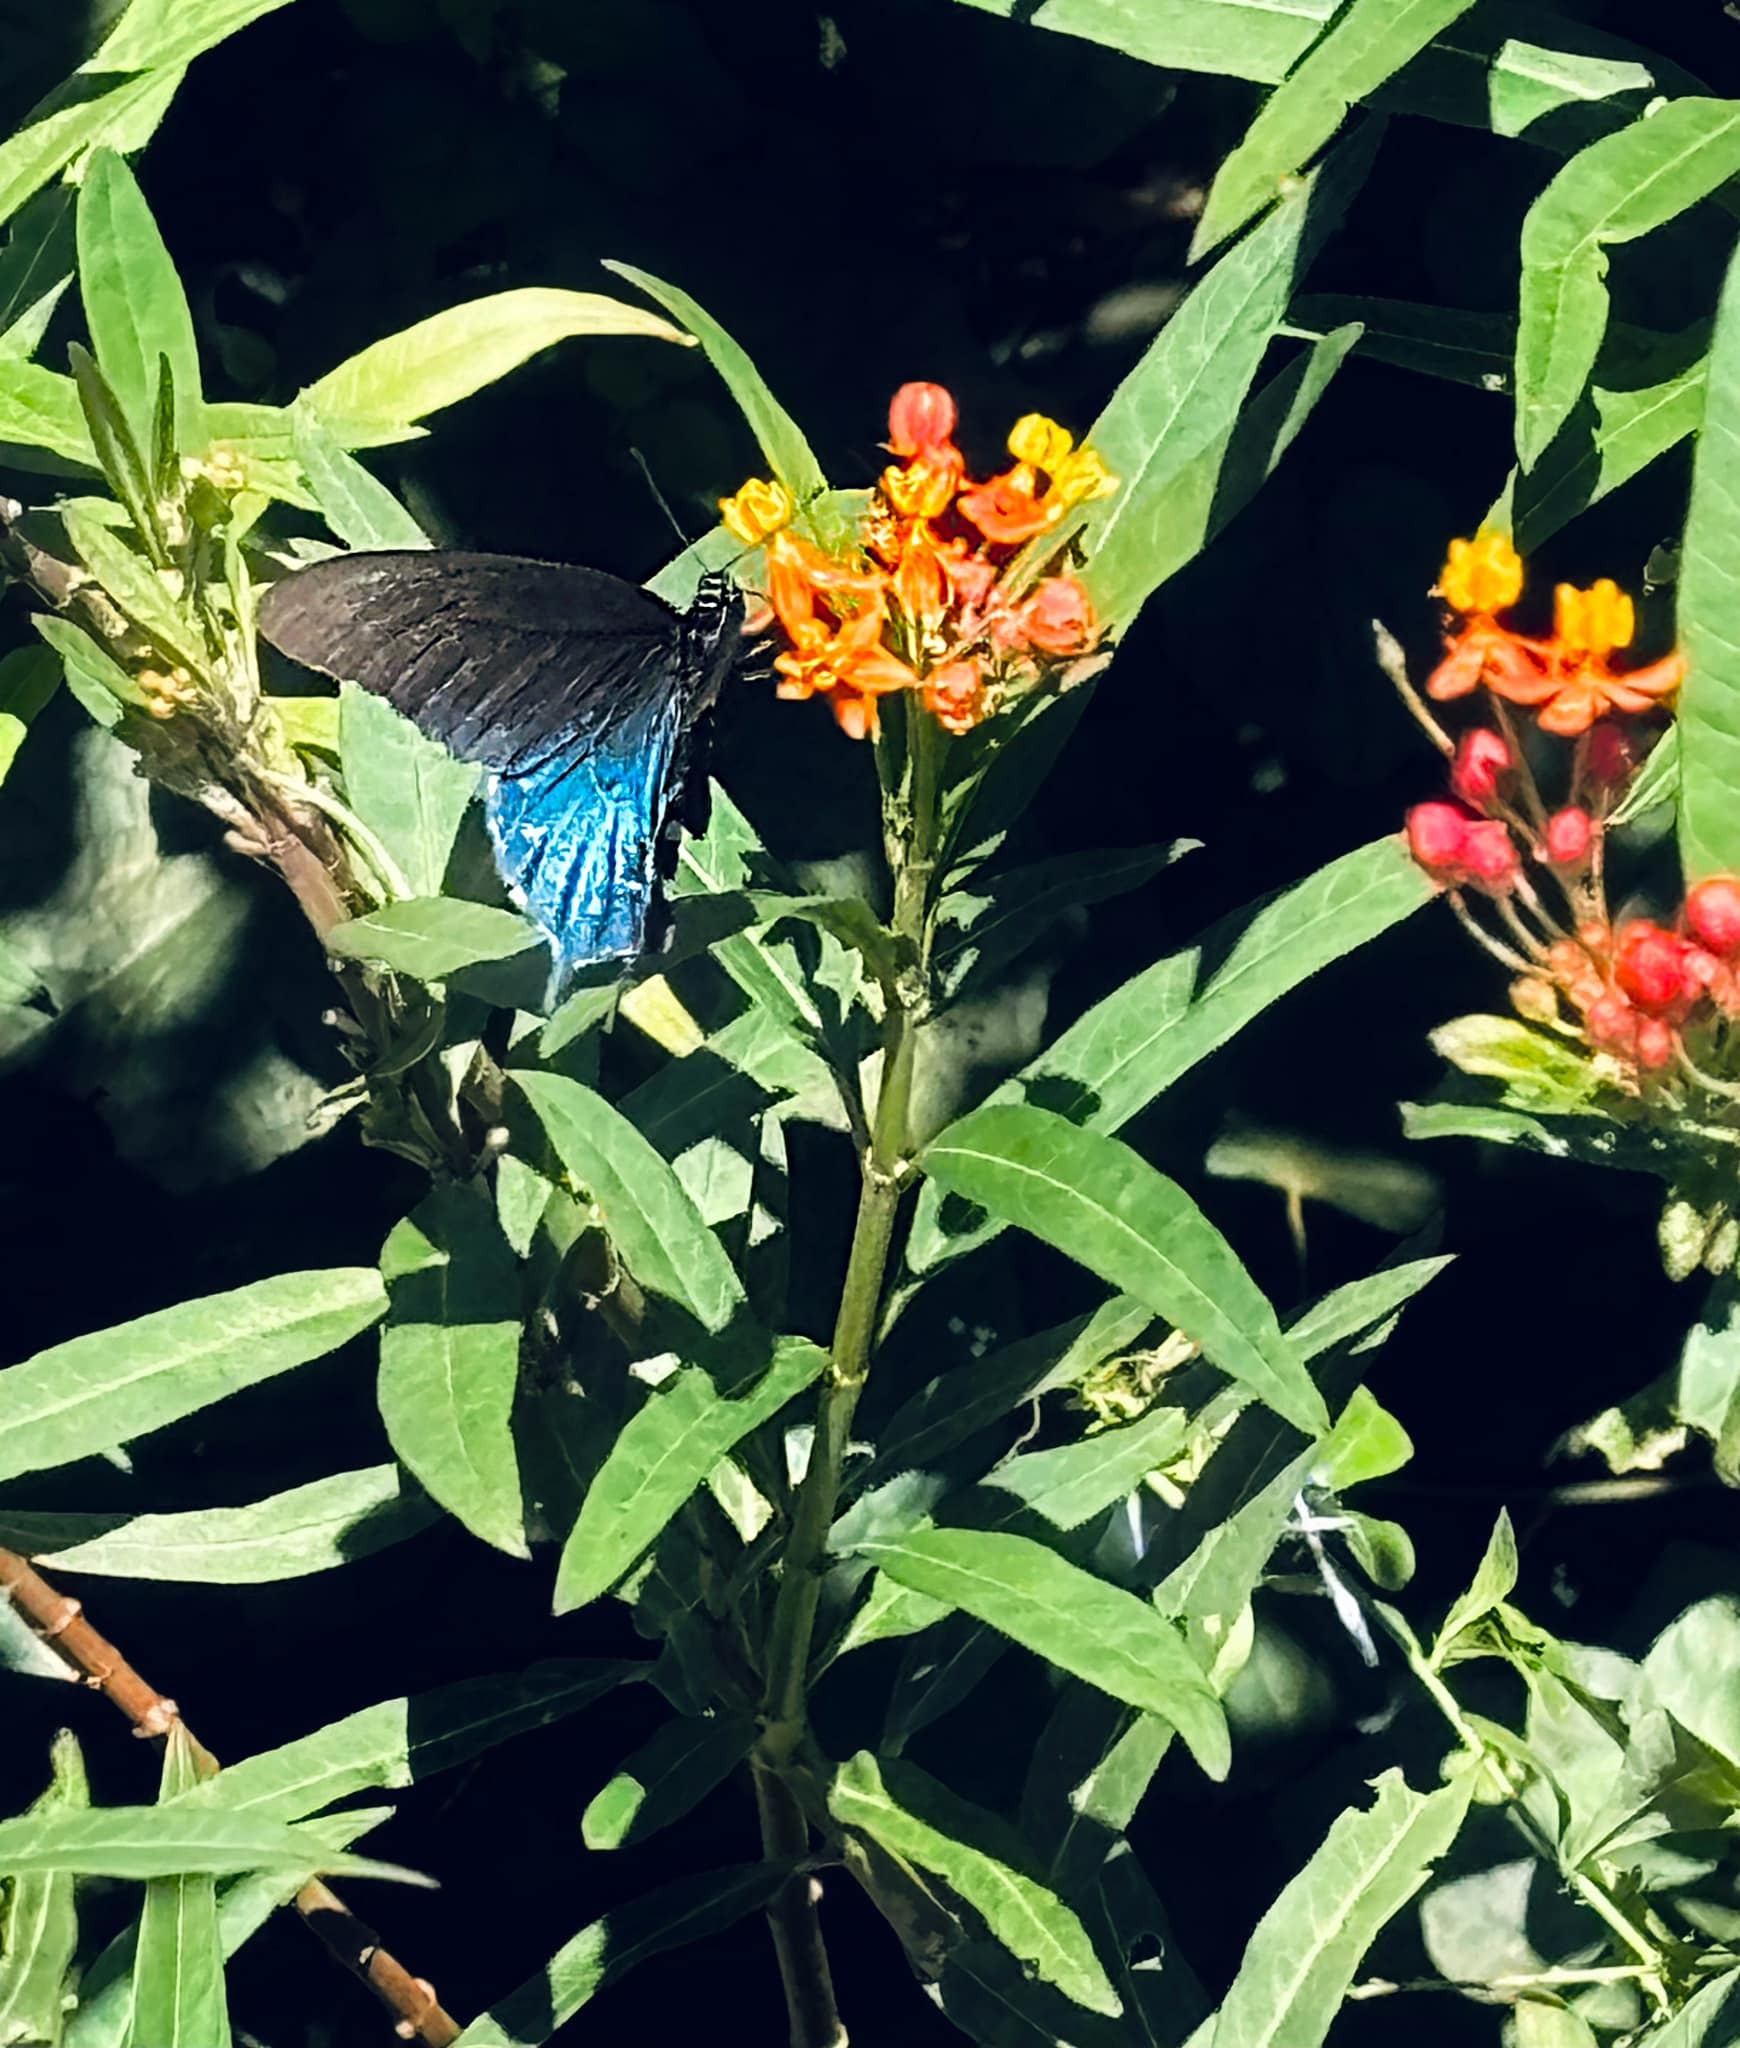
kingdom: Animalia
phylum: Arthropoda
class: Insecta
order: Lepidoptera
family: Papilionidae
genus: Battus
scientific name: Battus philenor
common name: Pipevine swallowtail
